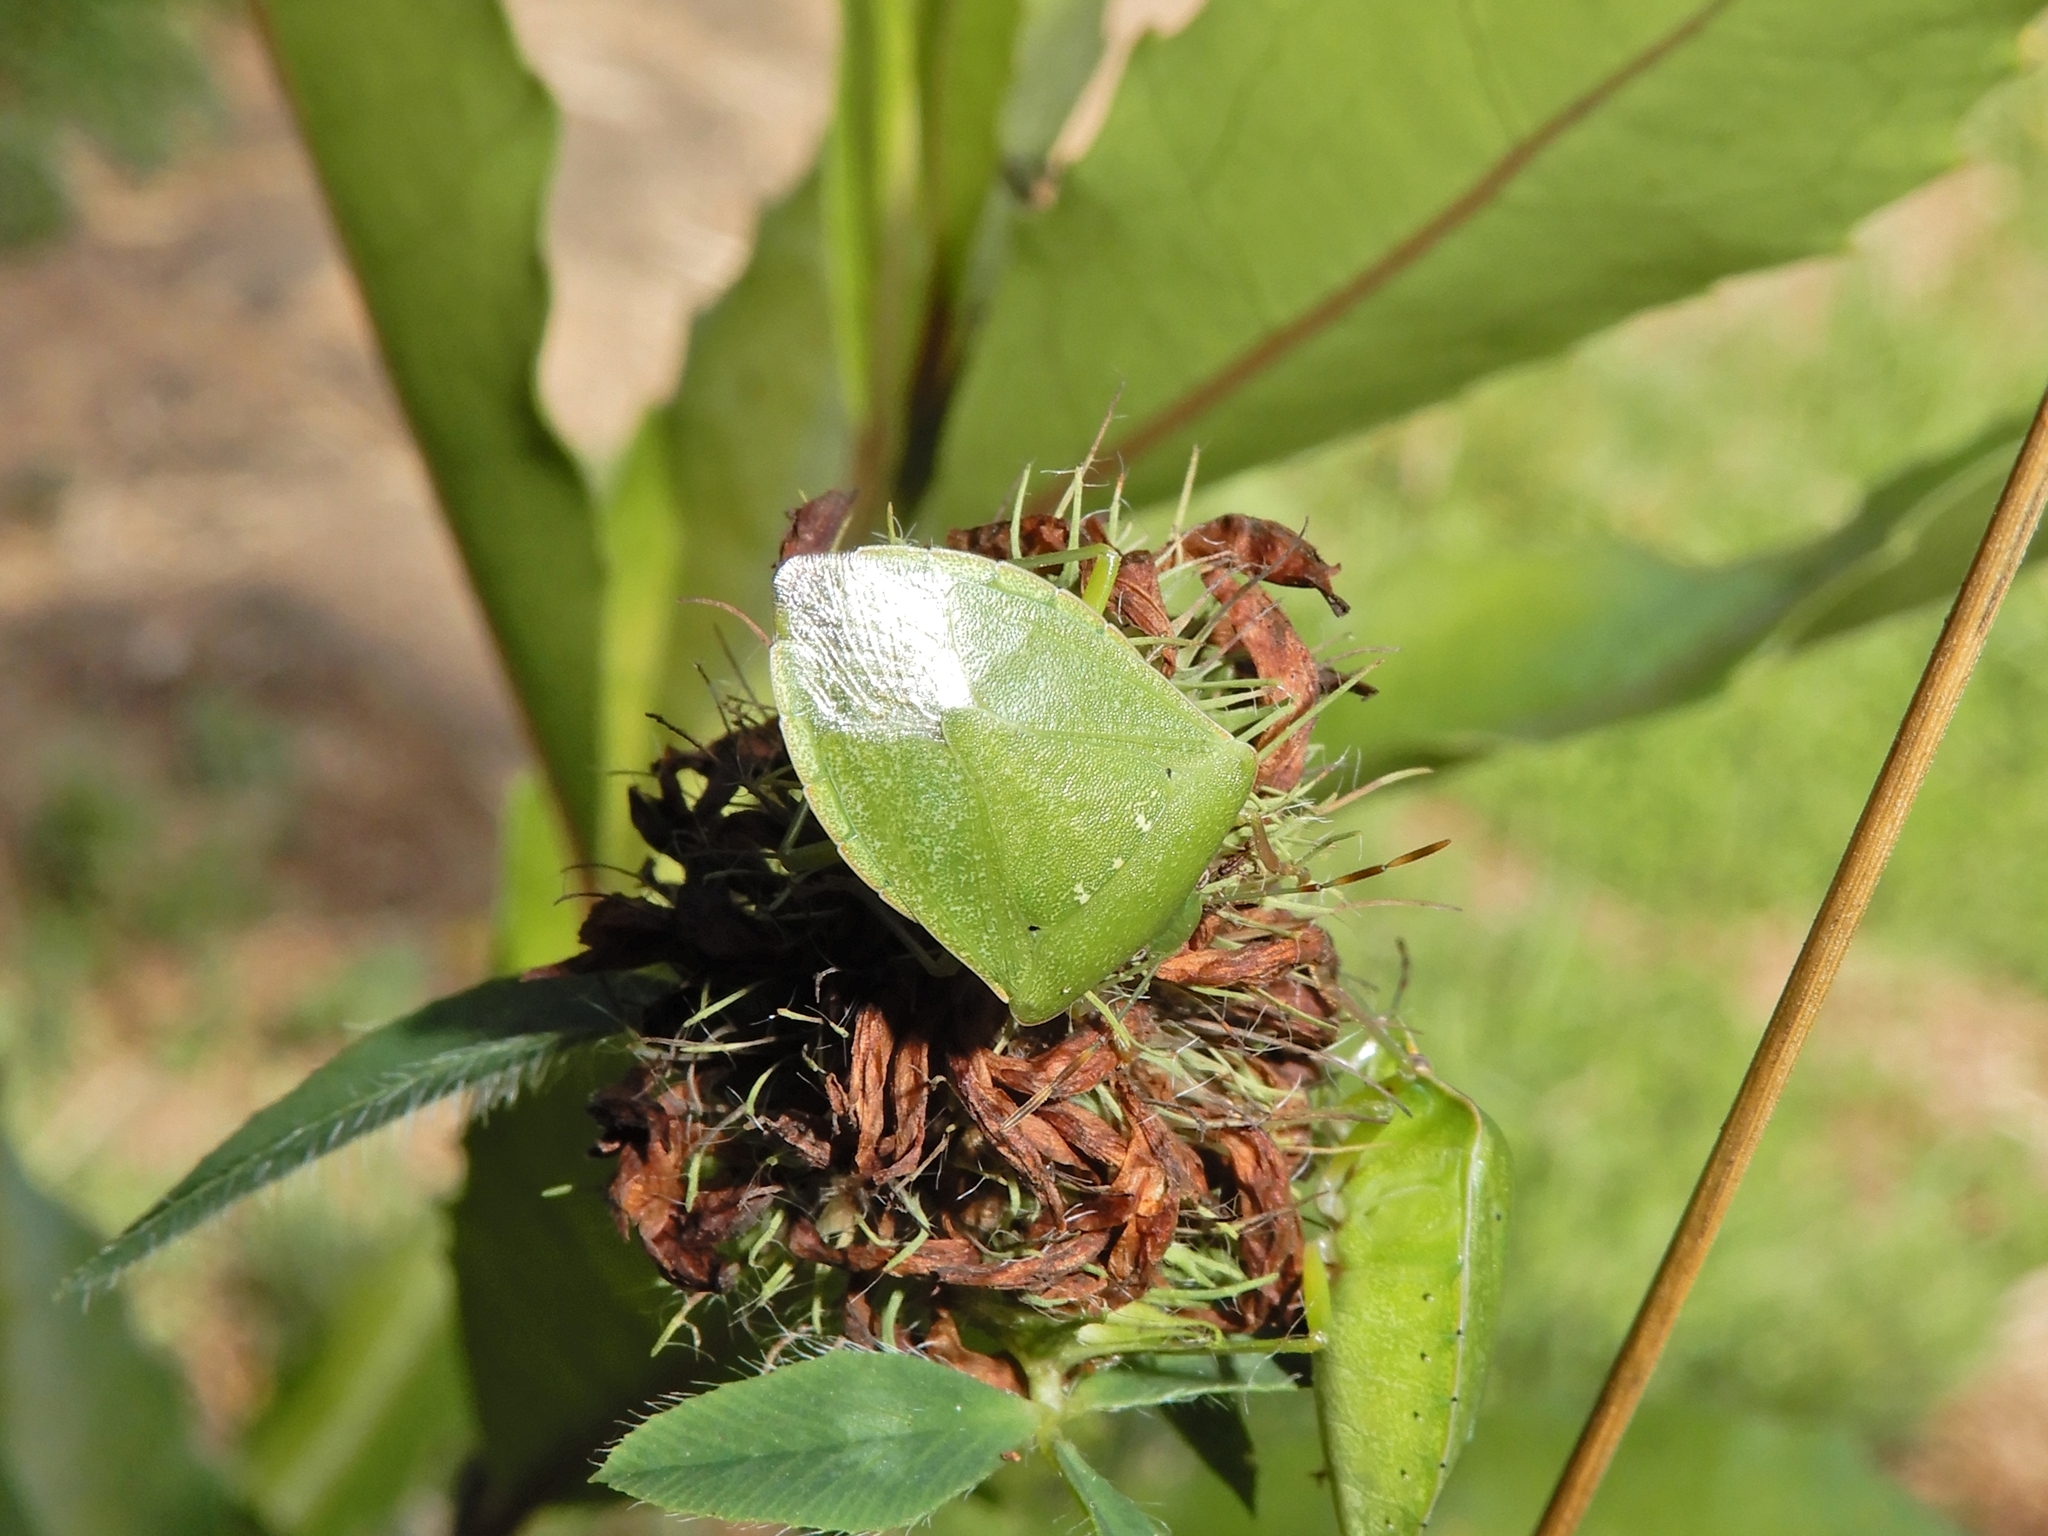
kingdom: Animalia
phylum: Arthropoda
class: Insecta
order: Hemiptera
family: Pentatomidae
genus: Nezara
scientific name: Nezara viridula
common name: Southern green stink bug
